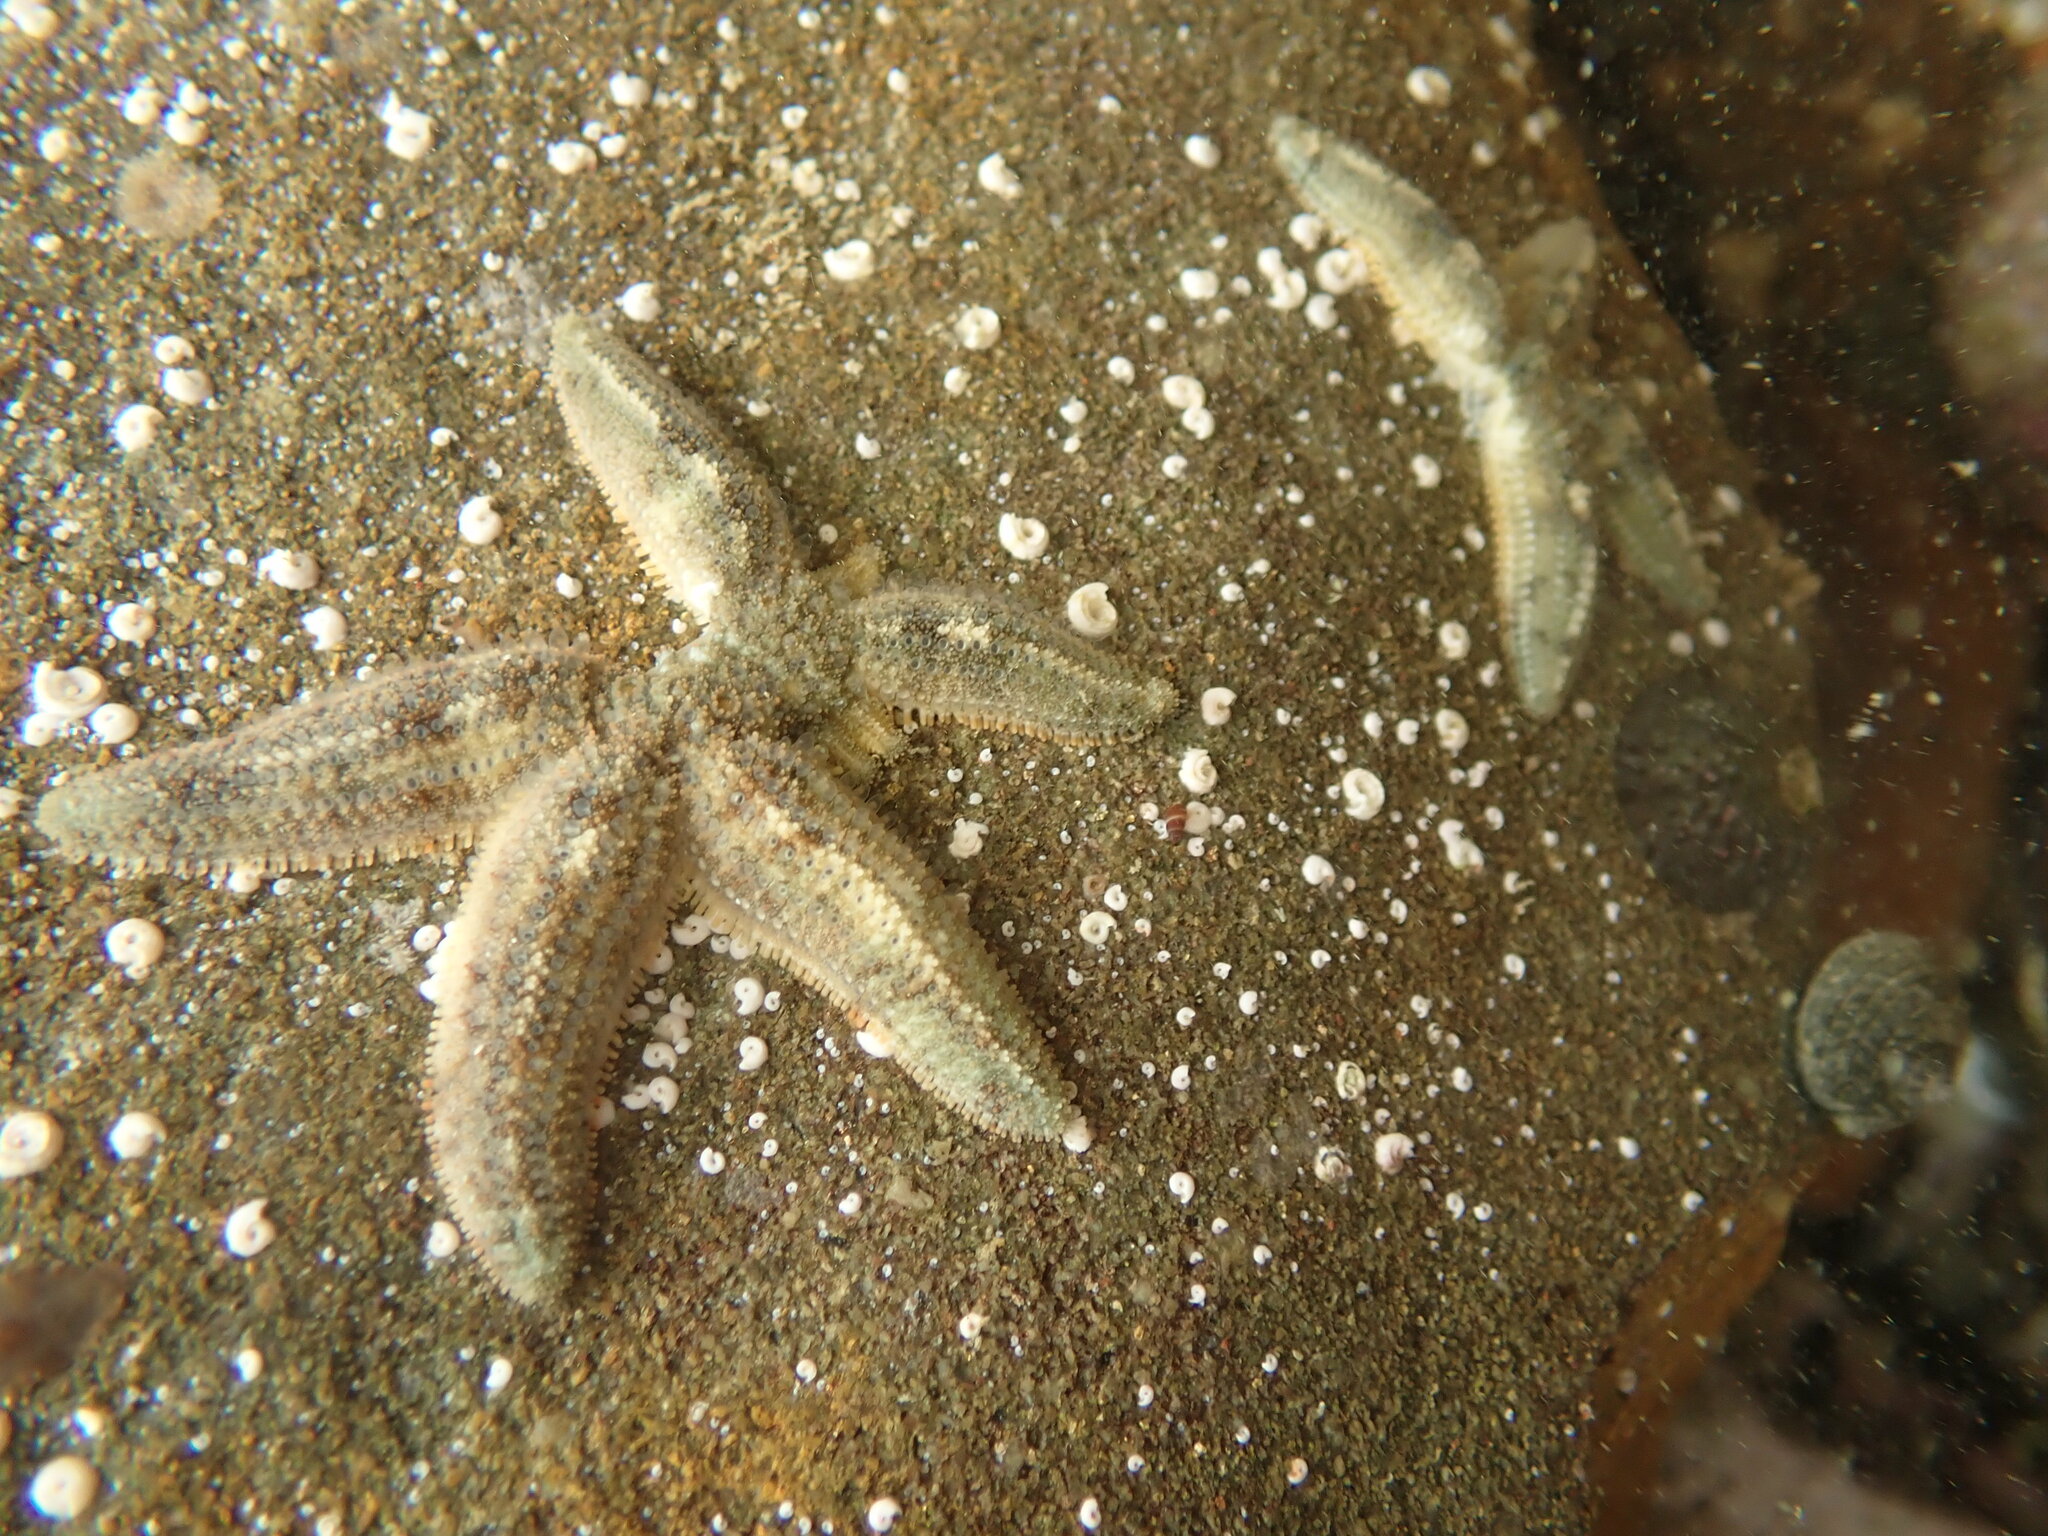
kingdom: Animalia
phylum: Echinodermata
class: Asteroidea
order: Forcipulatida
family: Stichasteridae
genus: Allostichaster
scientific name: Allostichaster polyplax
